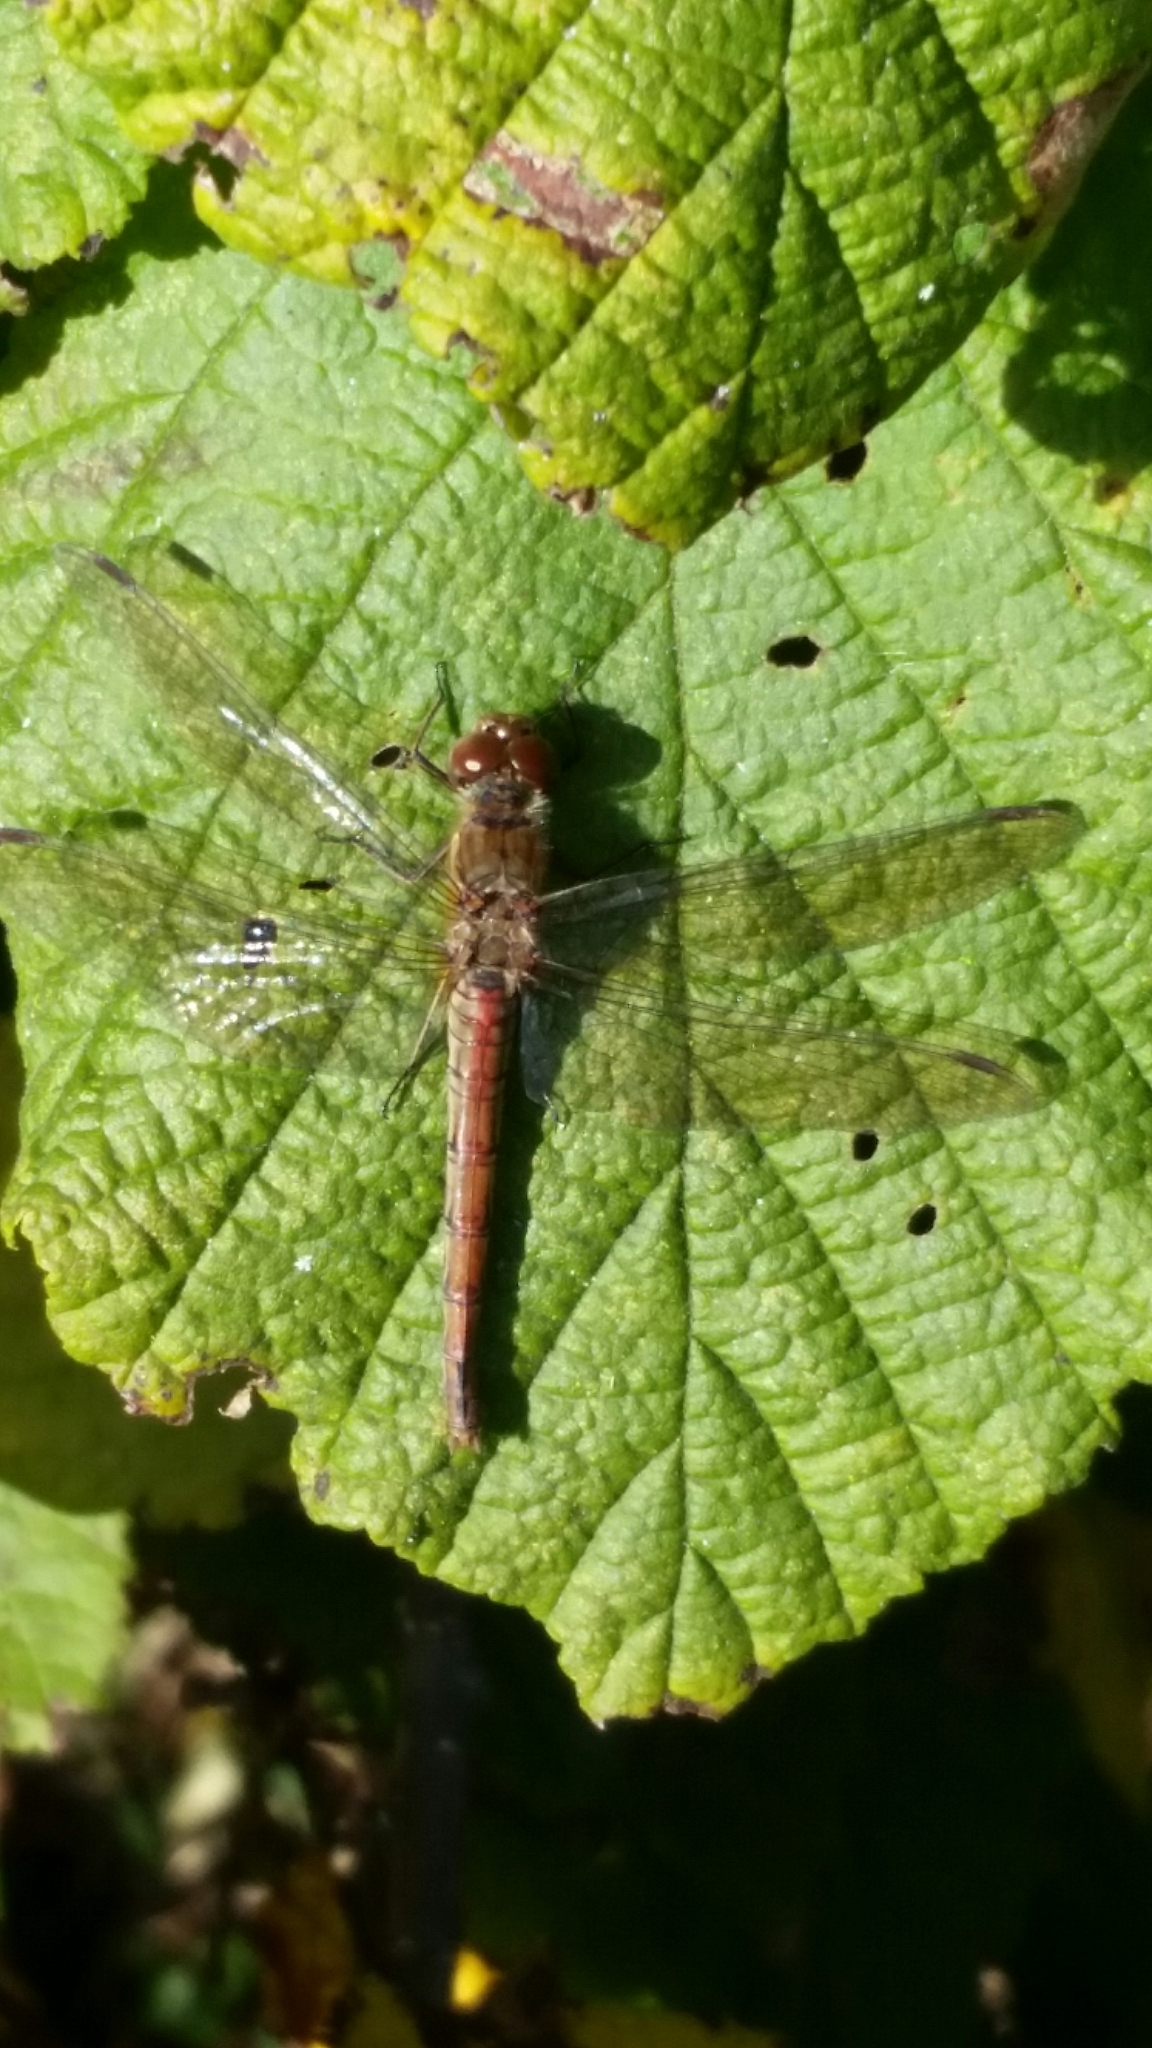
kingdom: Animalia
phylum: Arthropoda
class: Insecta
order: Odonata
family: Libellulidae
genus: Sympetrum
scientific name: Sympetrum striolatum
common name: Common darter
